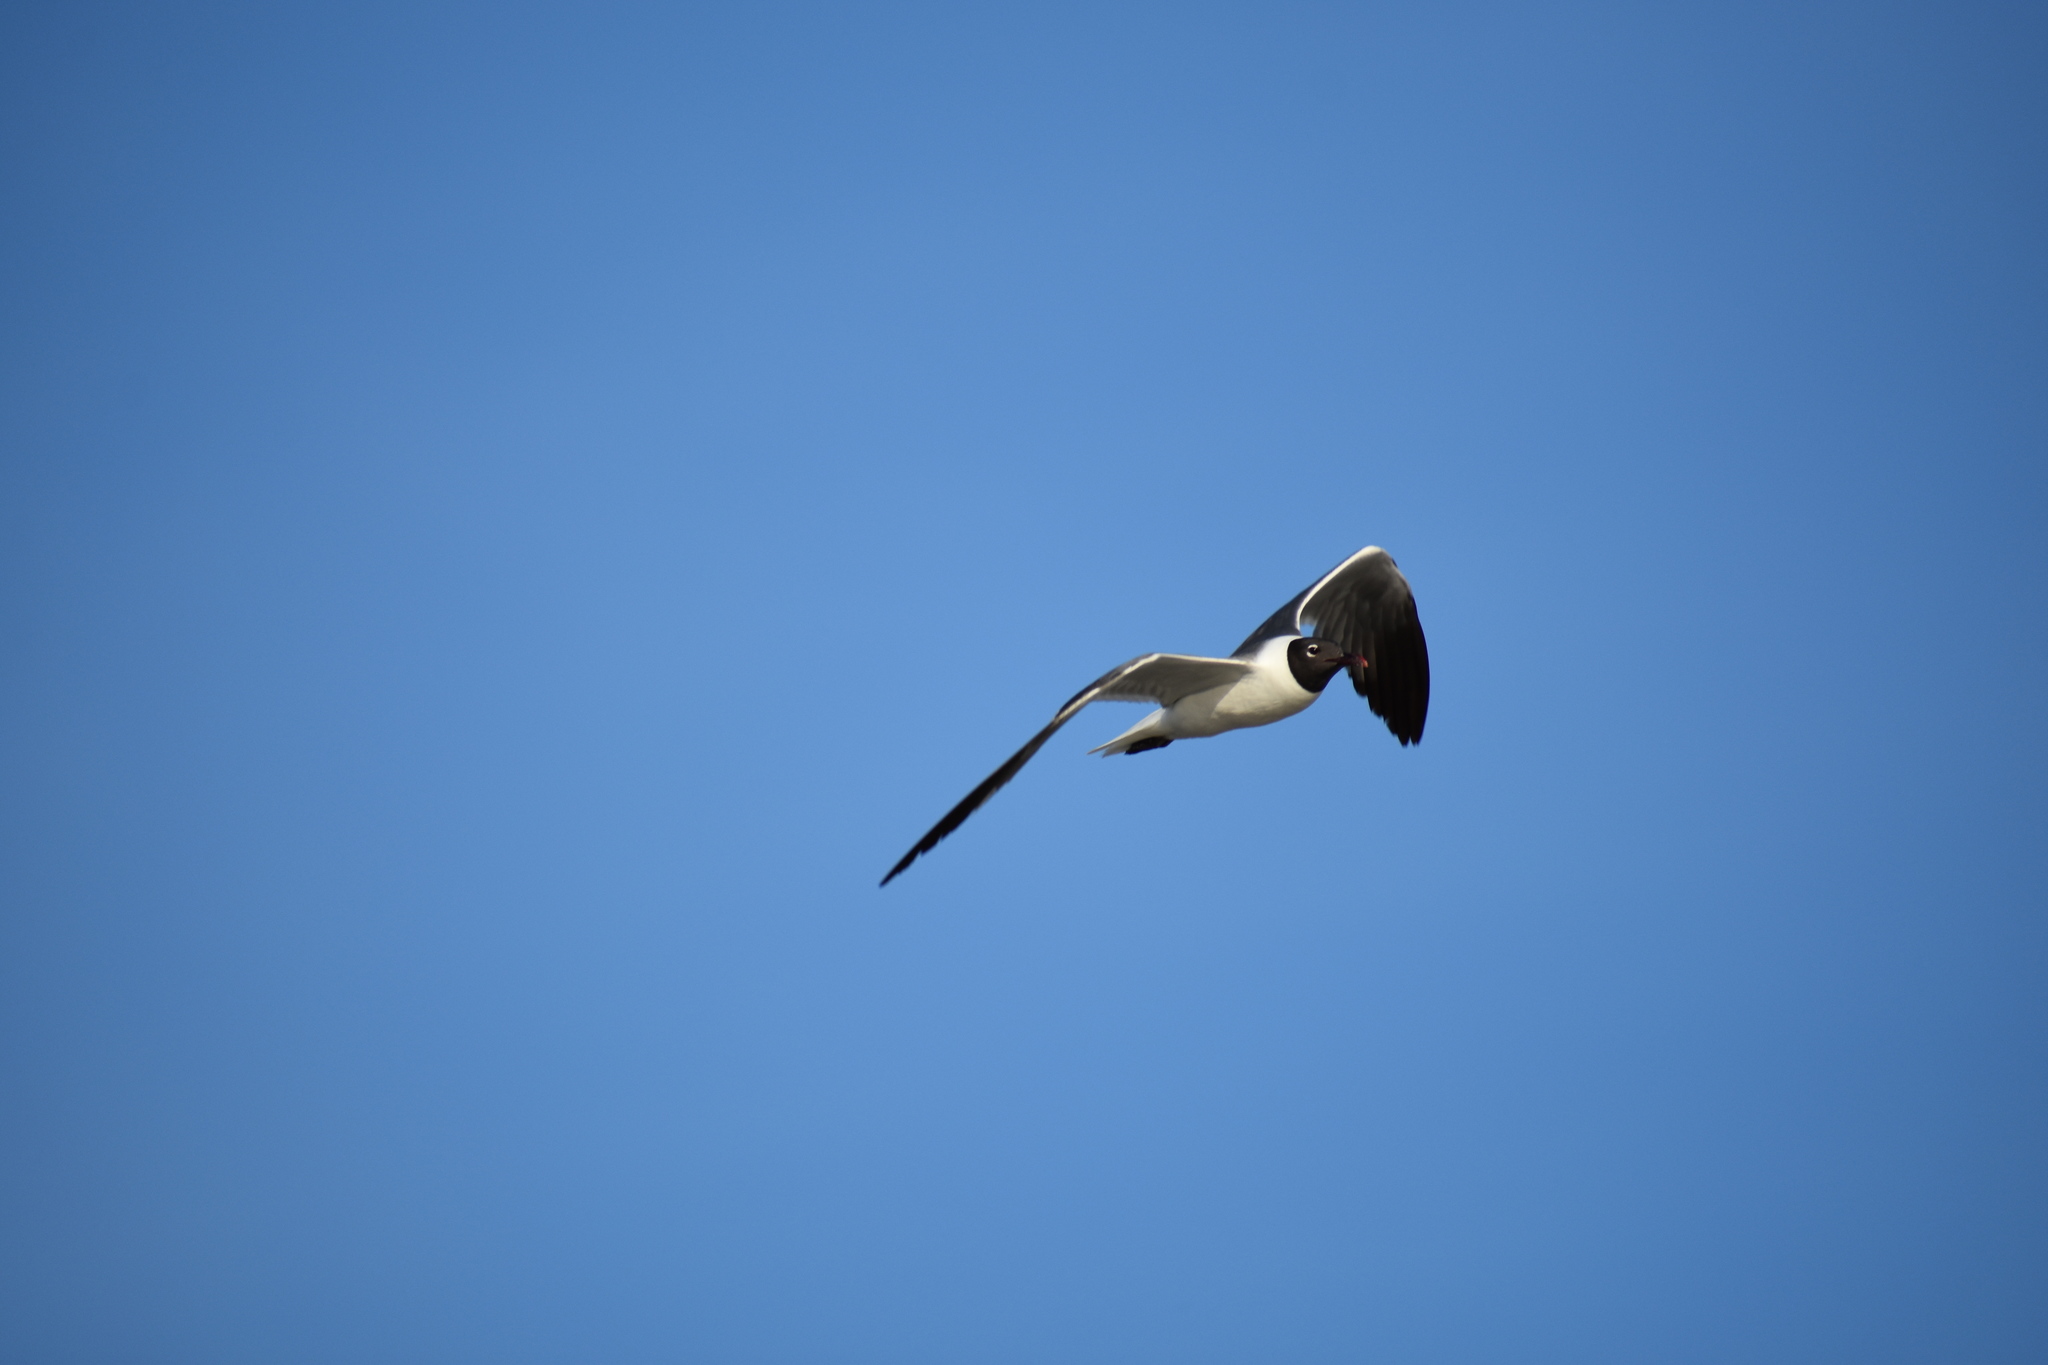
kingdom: Animalia
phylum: Chordata
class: Aves
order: Charadriiformes
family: Laridae
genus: Leucophaeus
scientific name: Leucophaeus atricilla
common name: Laughing gull
